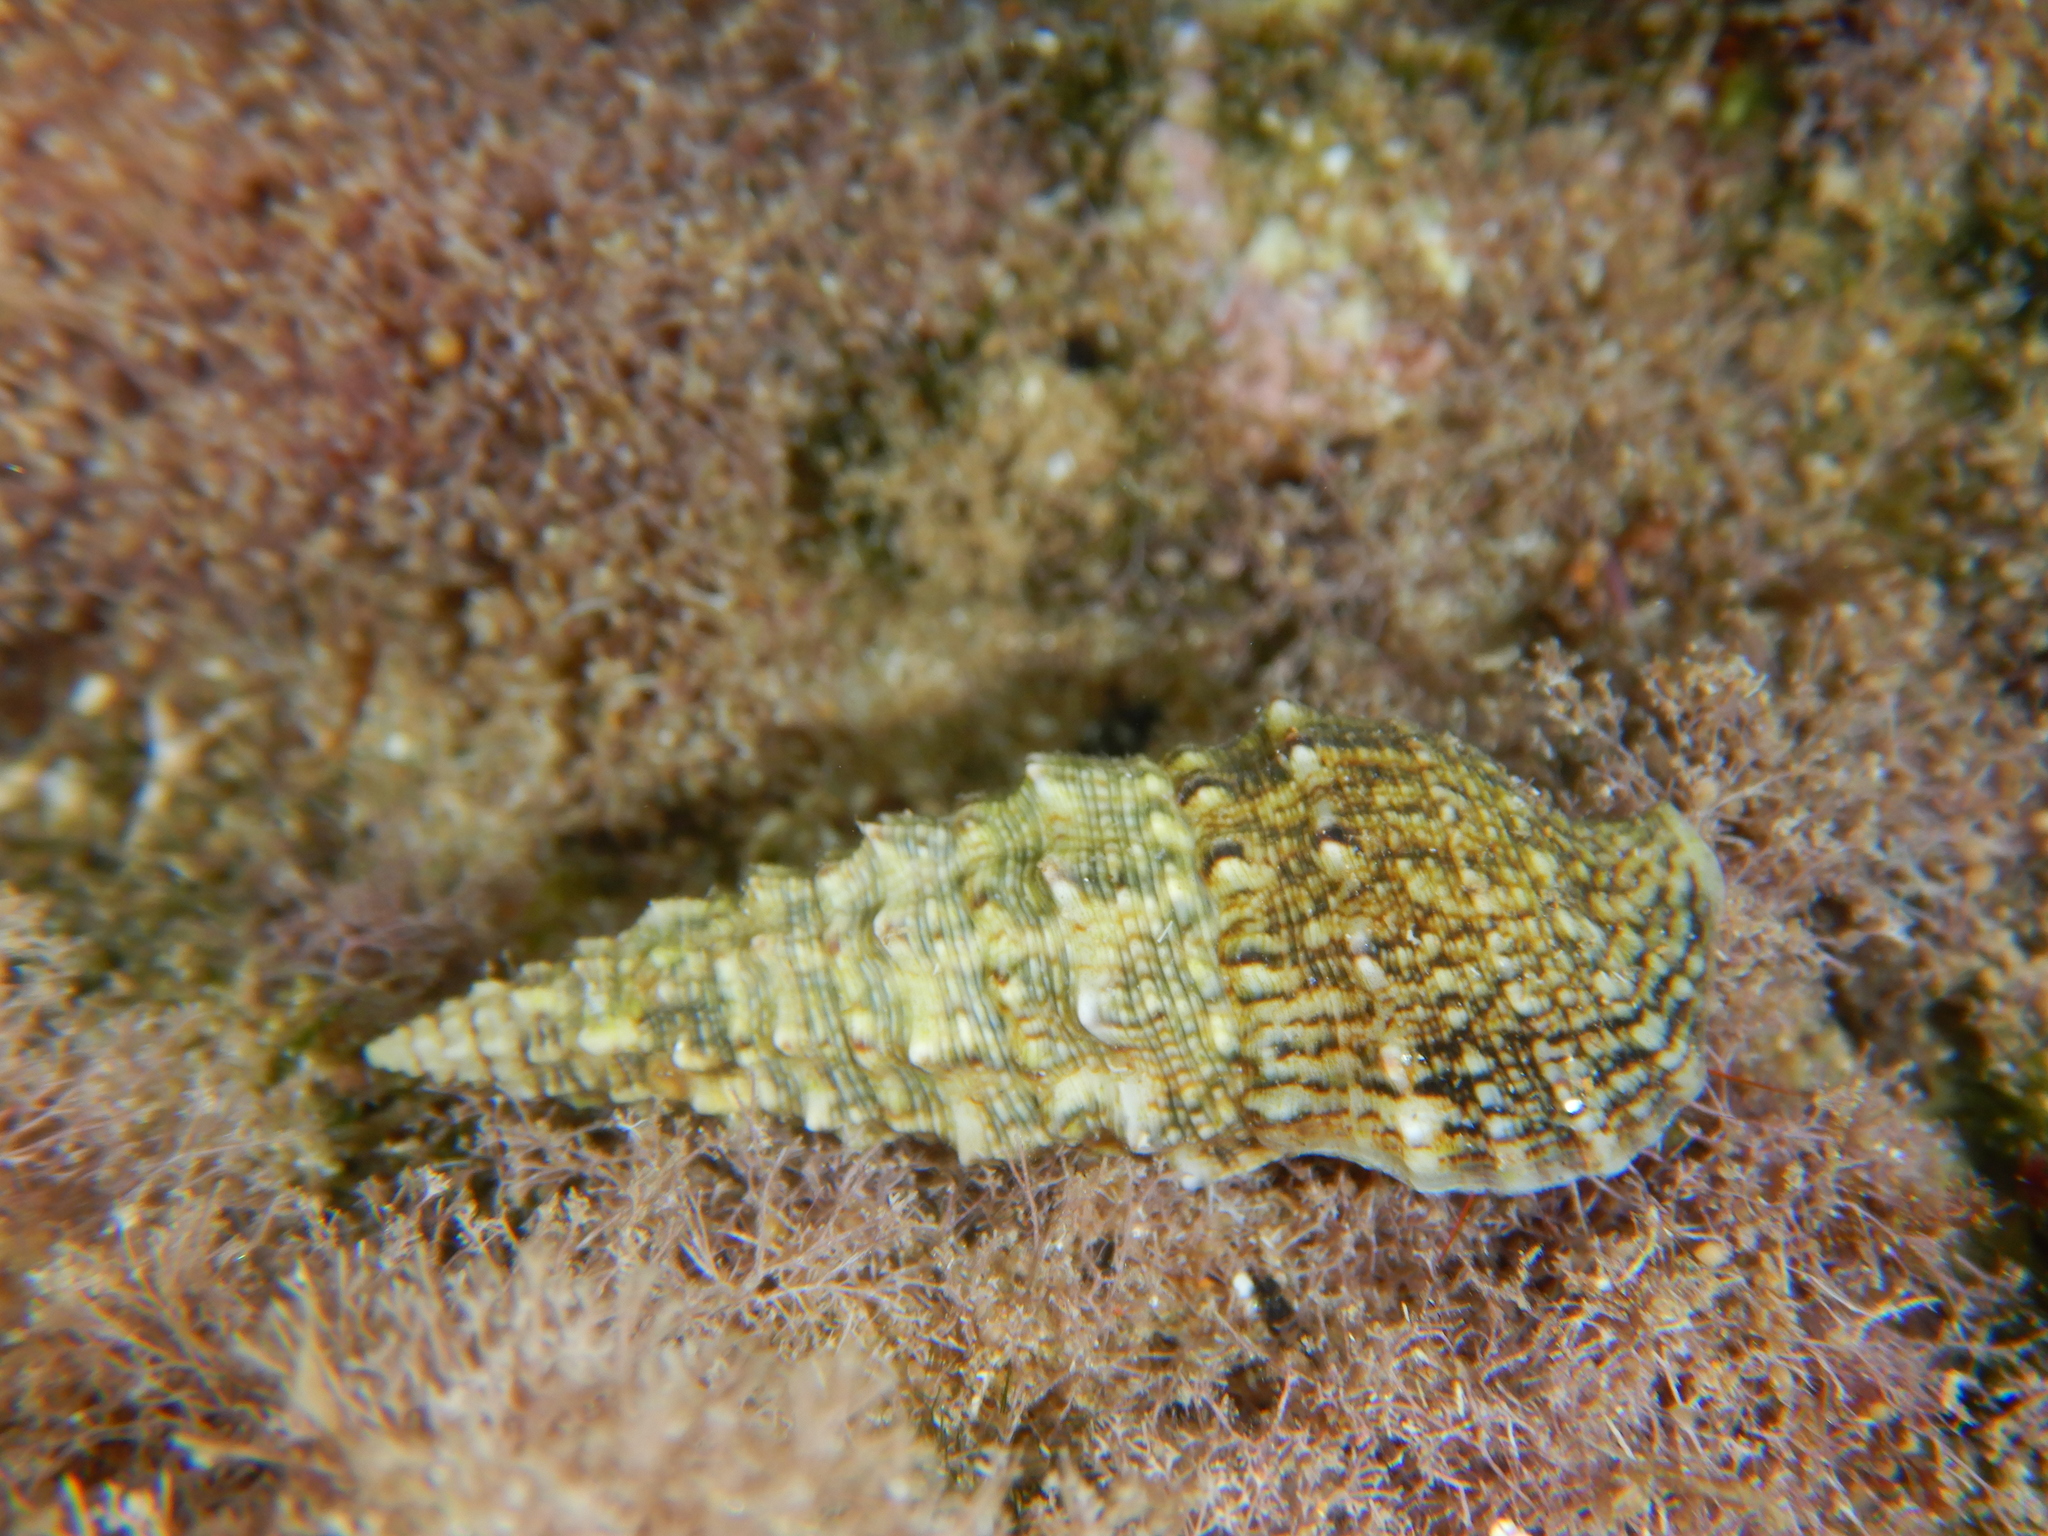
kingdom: Animalia
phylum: Mollusca
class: Gastropoda
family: Cerithiidae
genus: Cerithium
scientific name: Cerithium vulgatum
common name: European cerith
